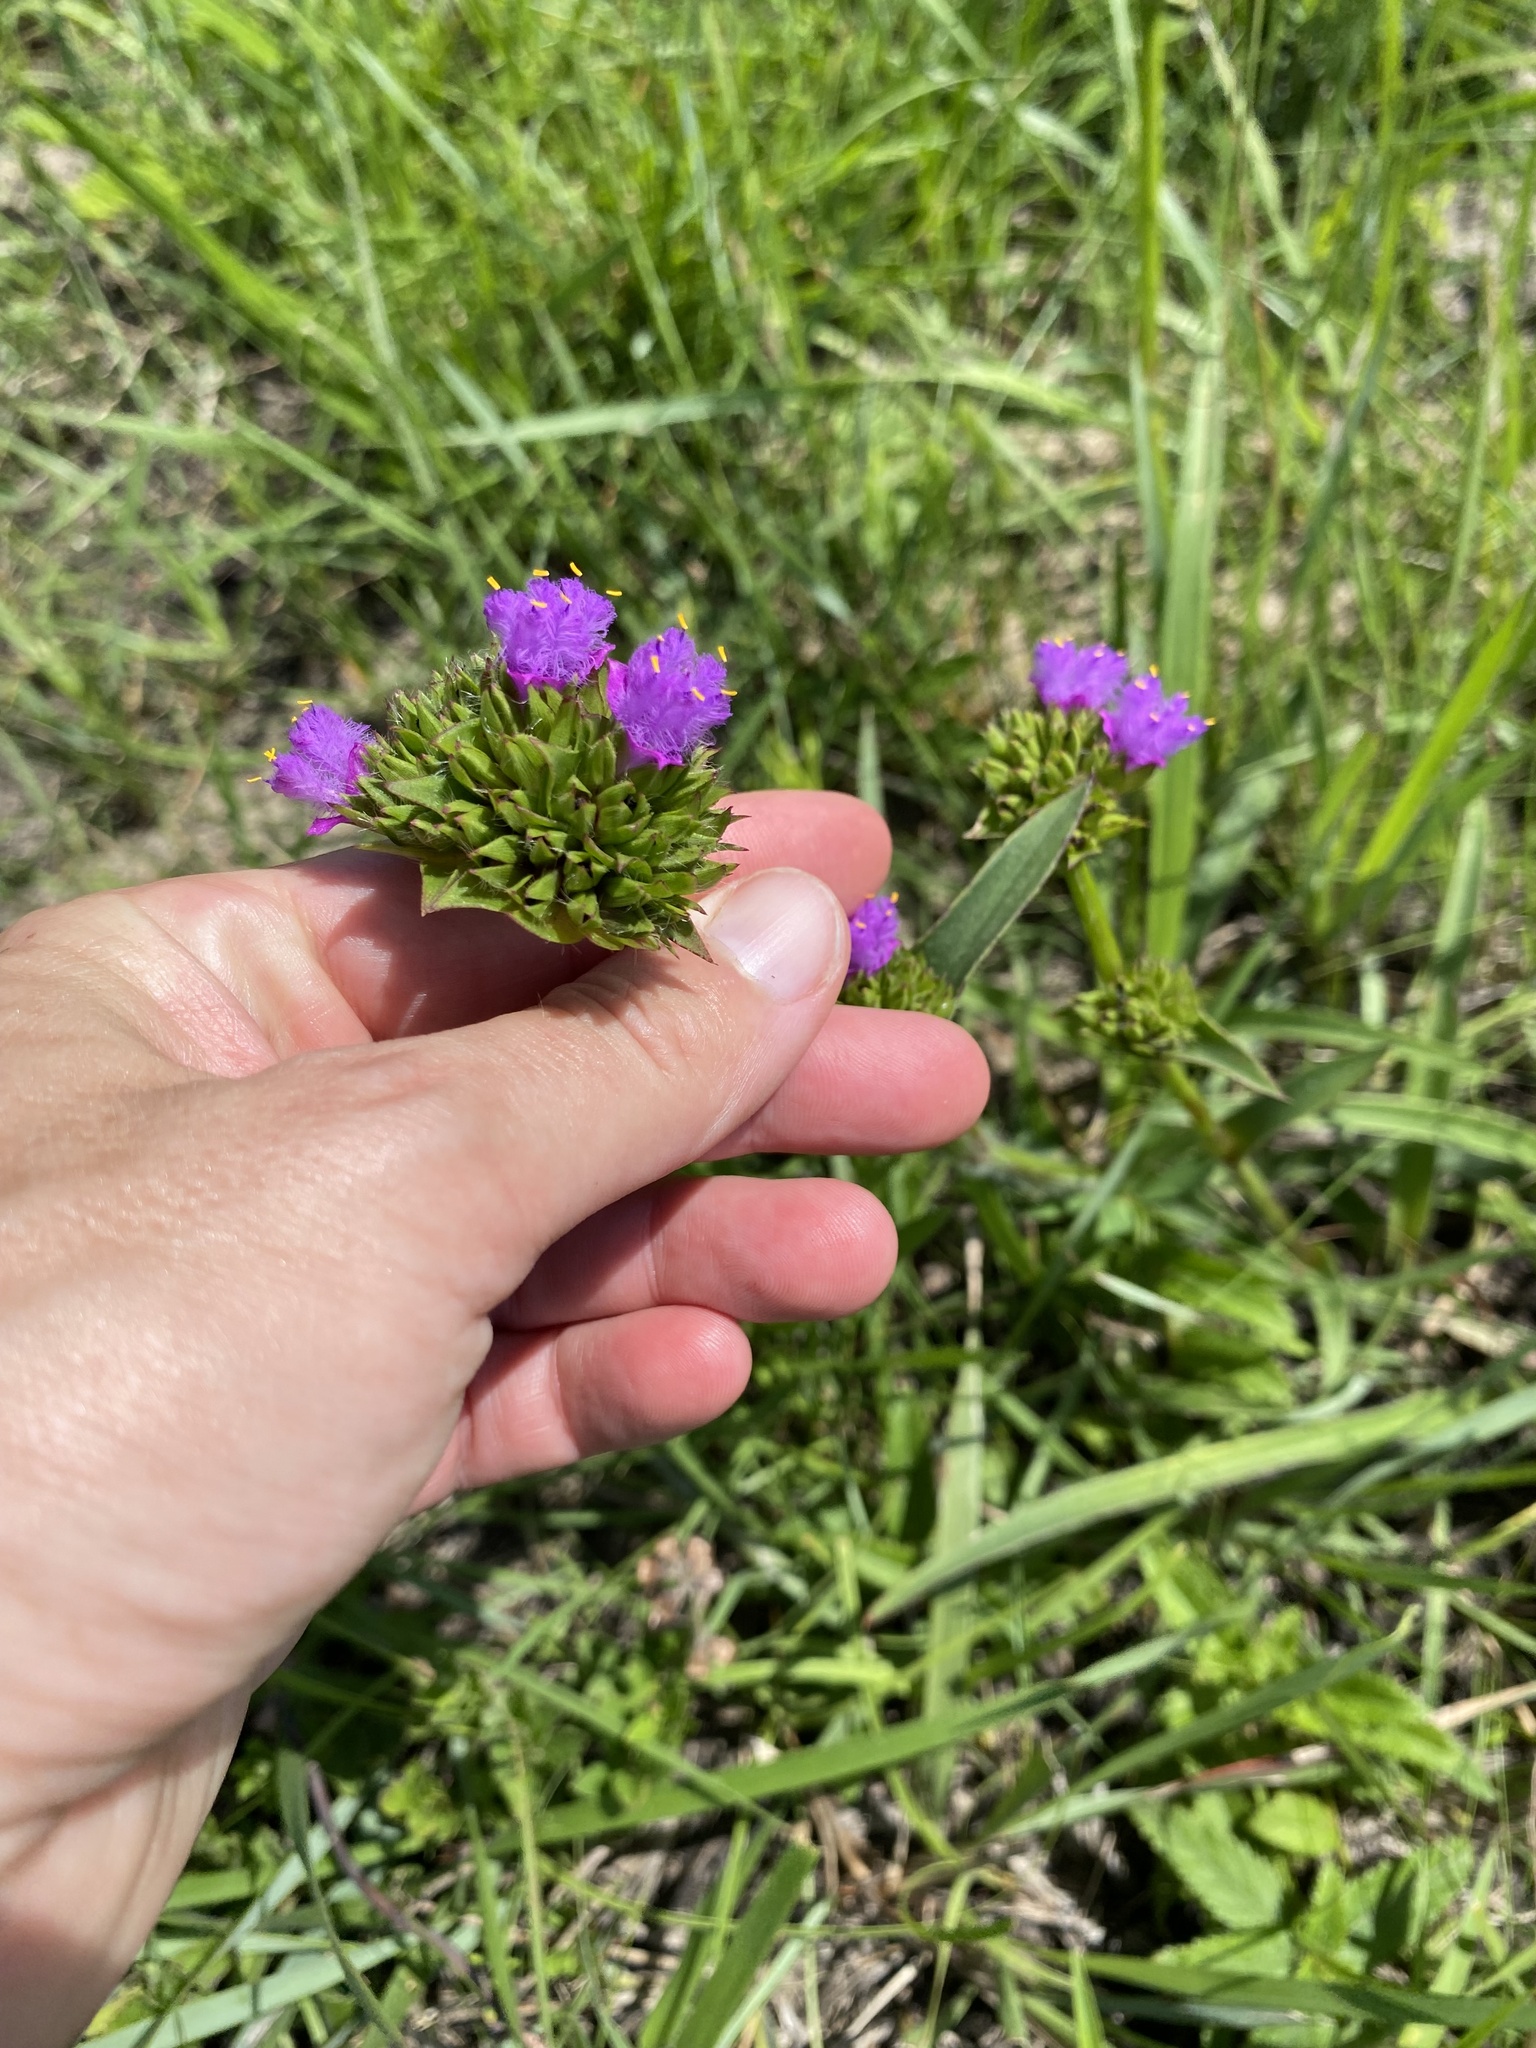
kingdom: Plantae
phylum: Tracheophyta
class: Liliopsida
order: Commelinales
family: Commelinaceae
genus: Cyanotis
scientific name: Cyanotis speciosa
